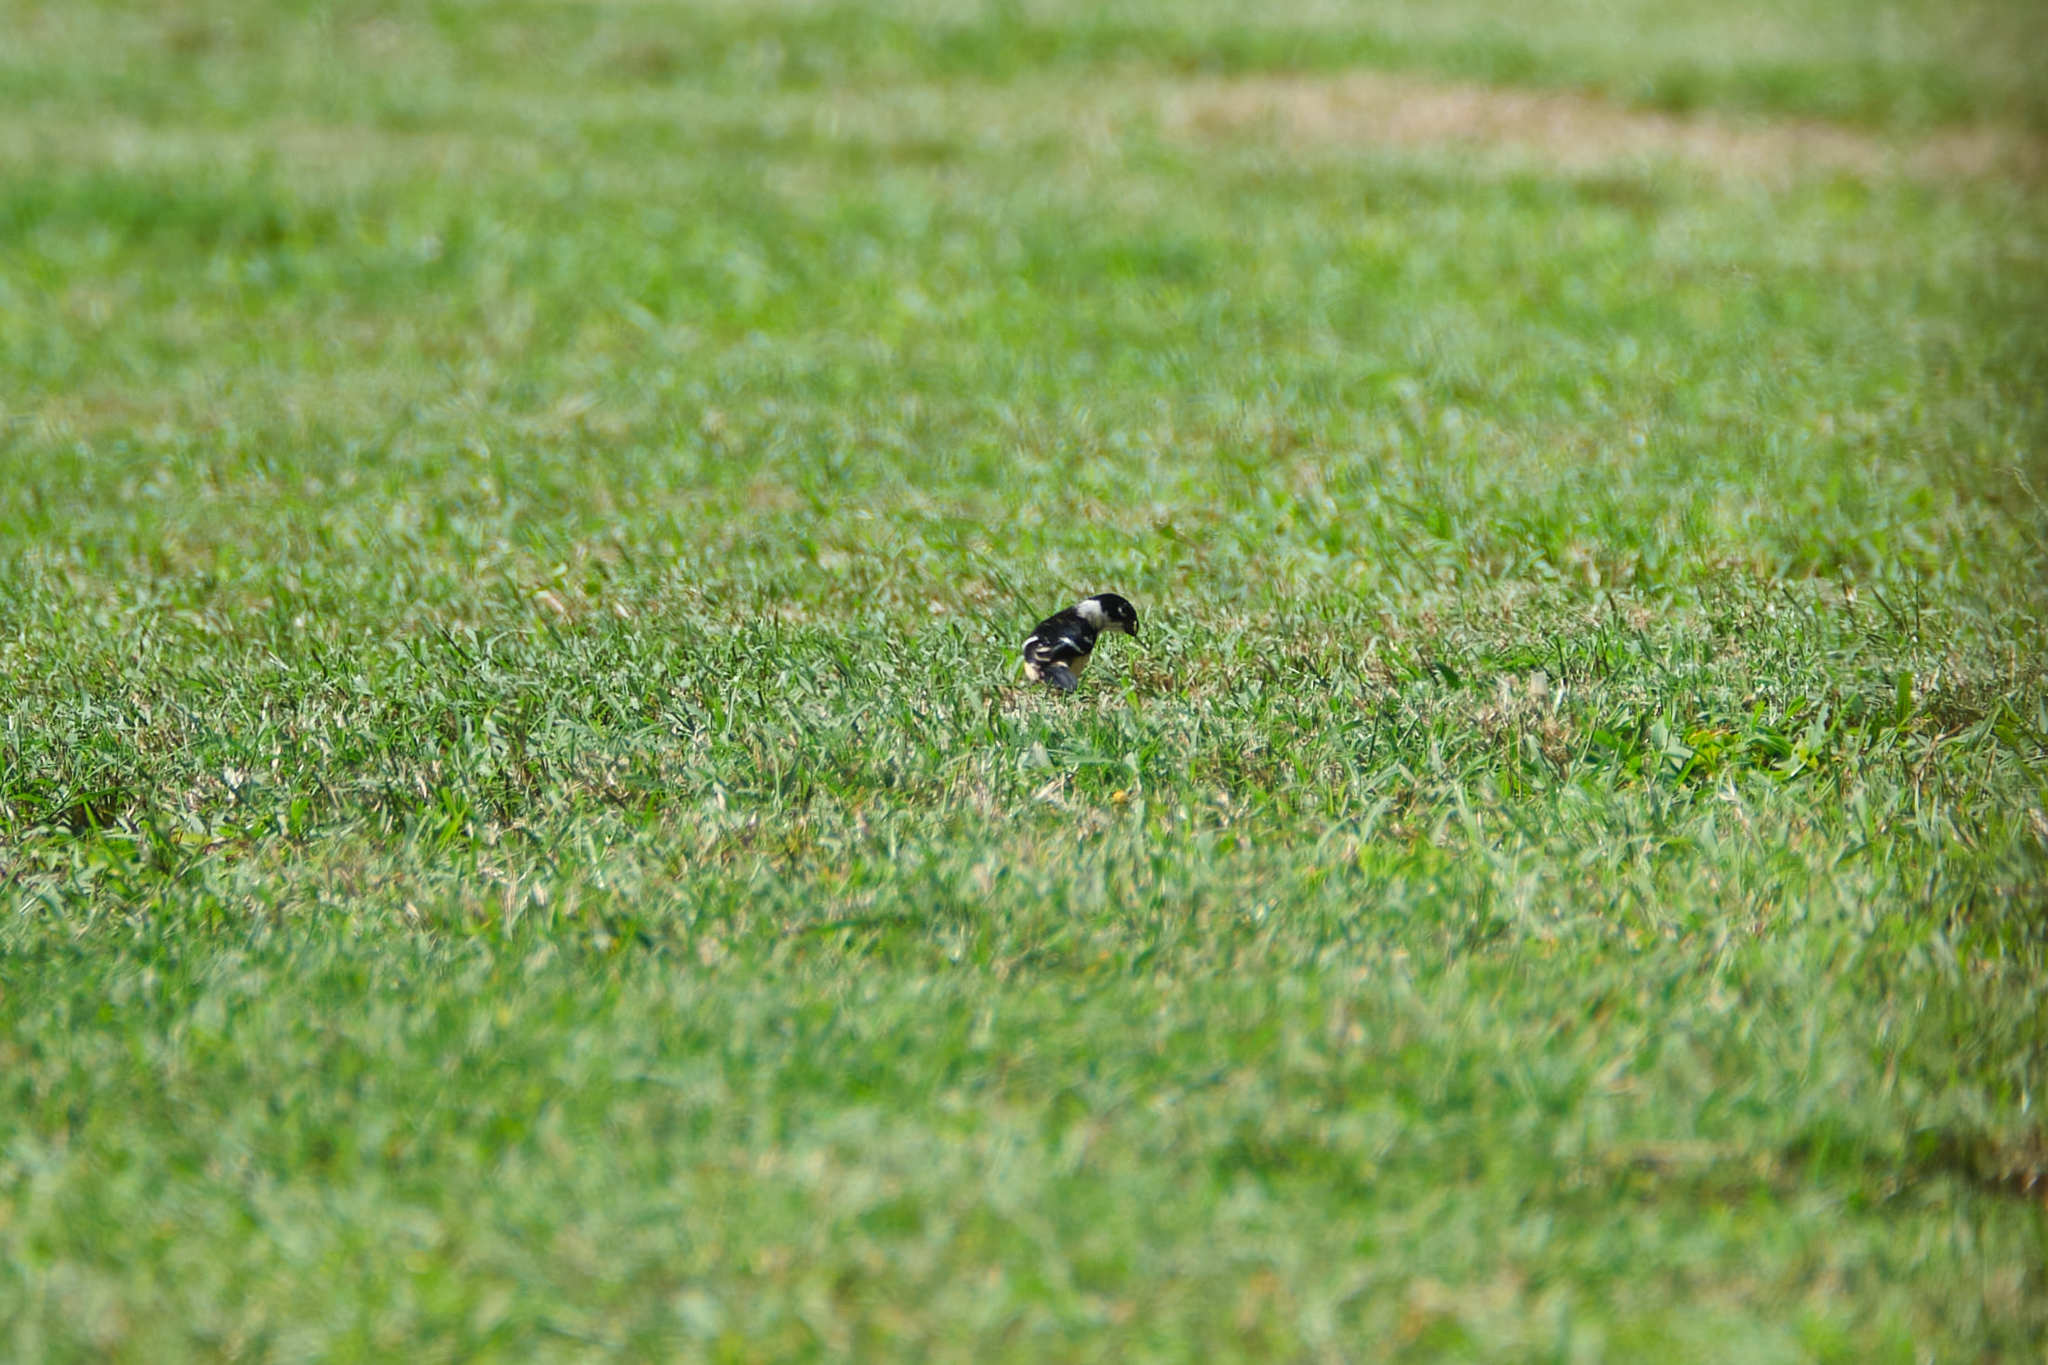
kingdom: Animalia
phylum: Chordata
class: Aves
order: Passeriformes
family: Thraupidae
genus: Sporophila
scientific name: Sporophila morelleti
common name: Morelet's seedeater
